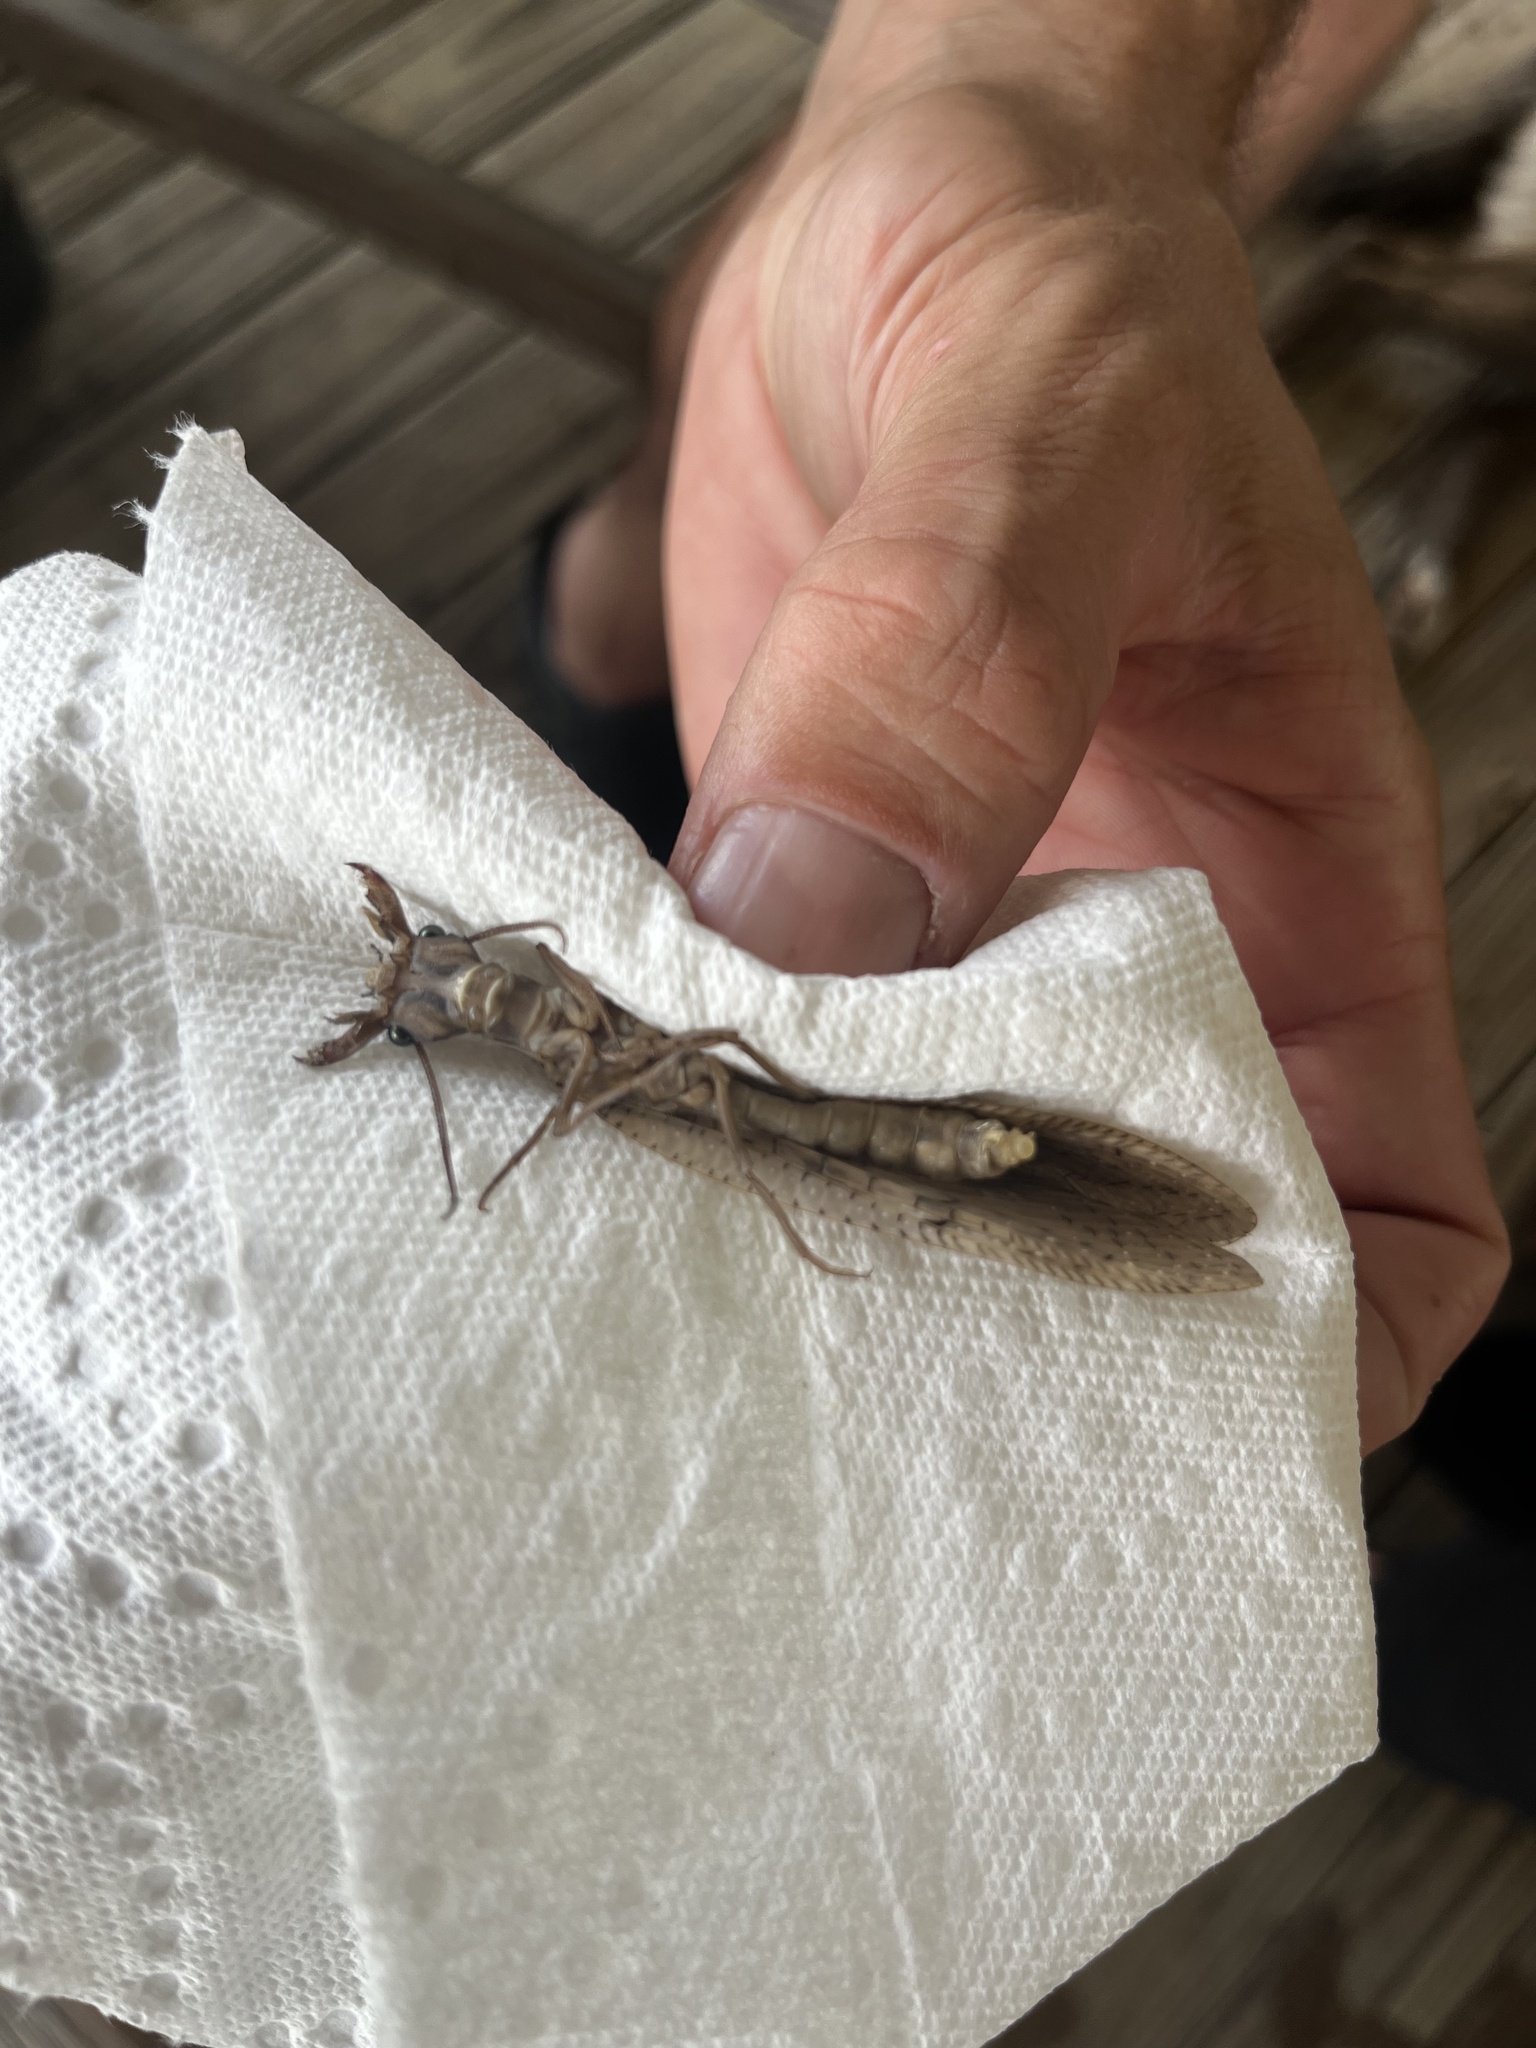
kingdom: Animalia
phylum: Arthropoda
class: Insecta
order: Megaloptera
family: Corydalidae
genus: Corydalus
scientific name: Corydalus cornutus
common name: Dobsonfly
